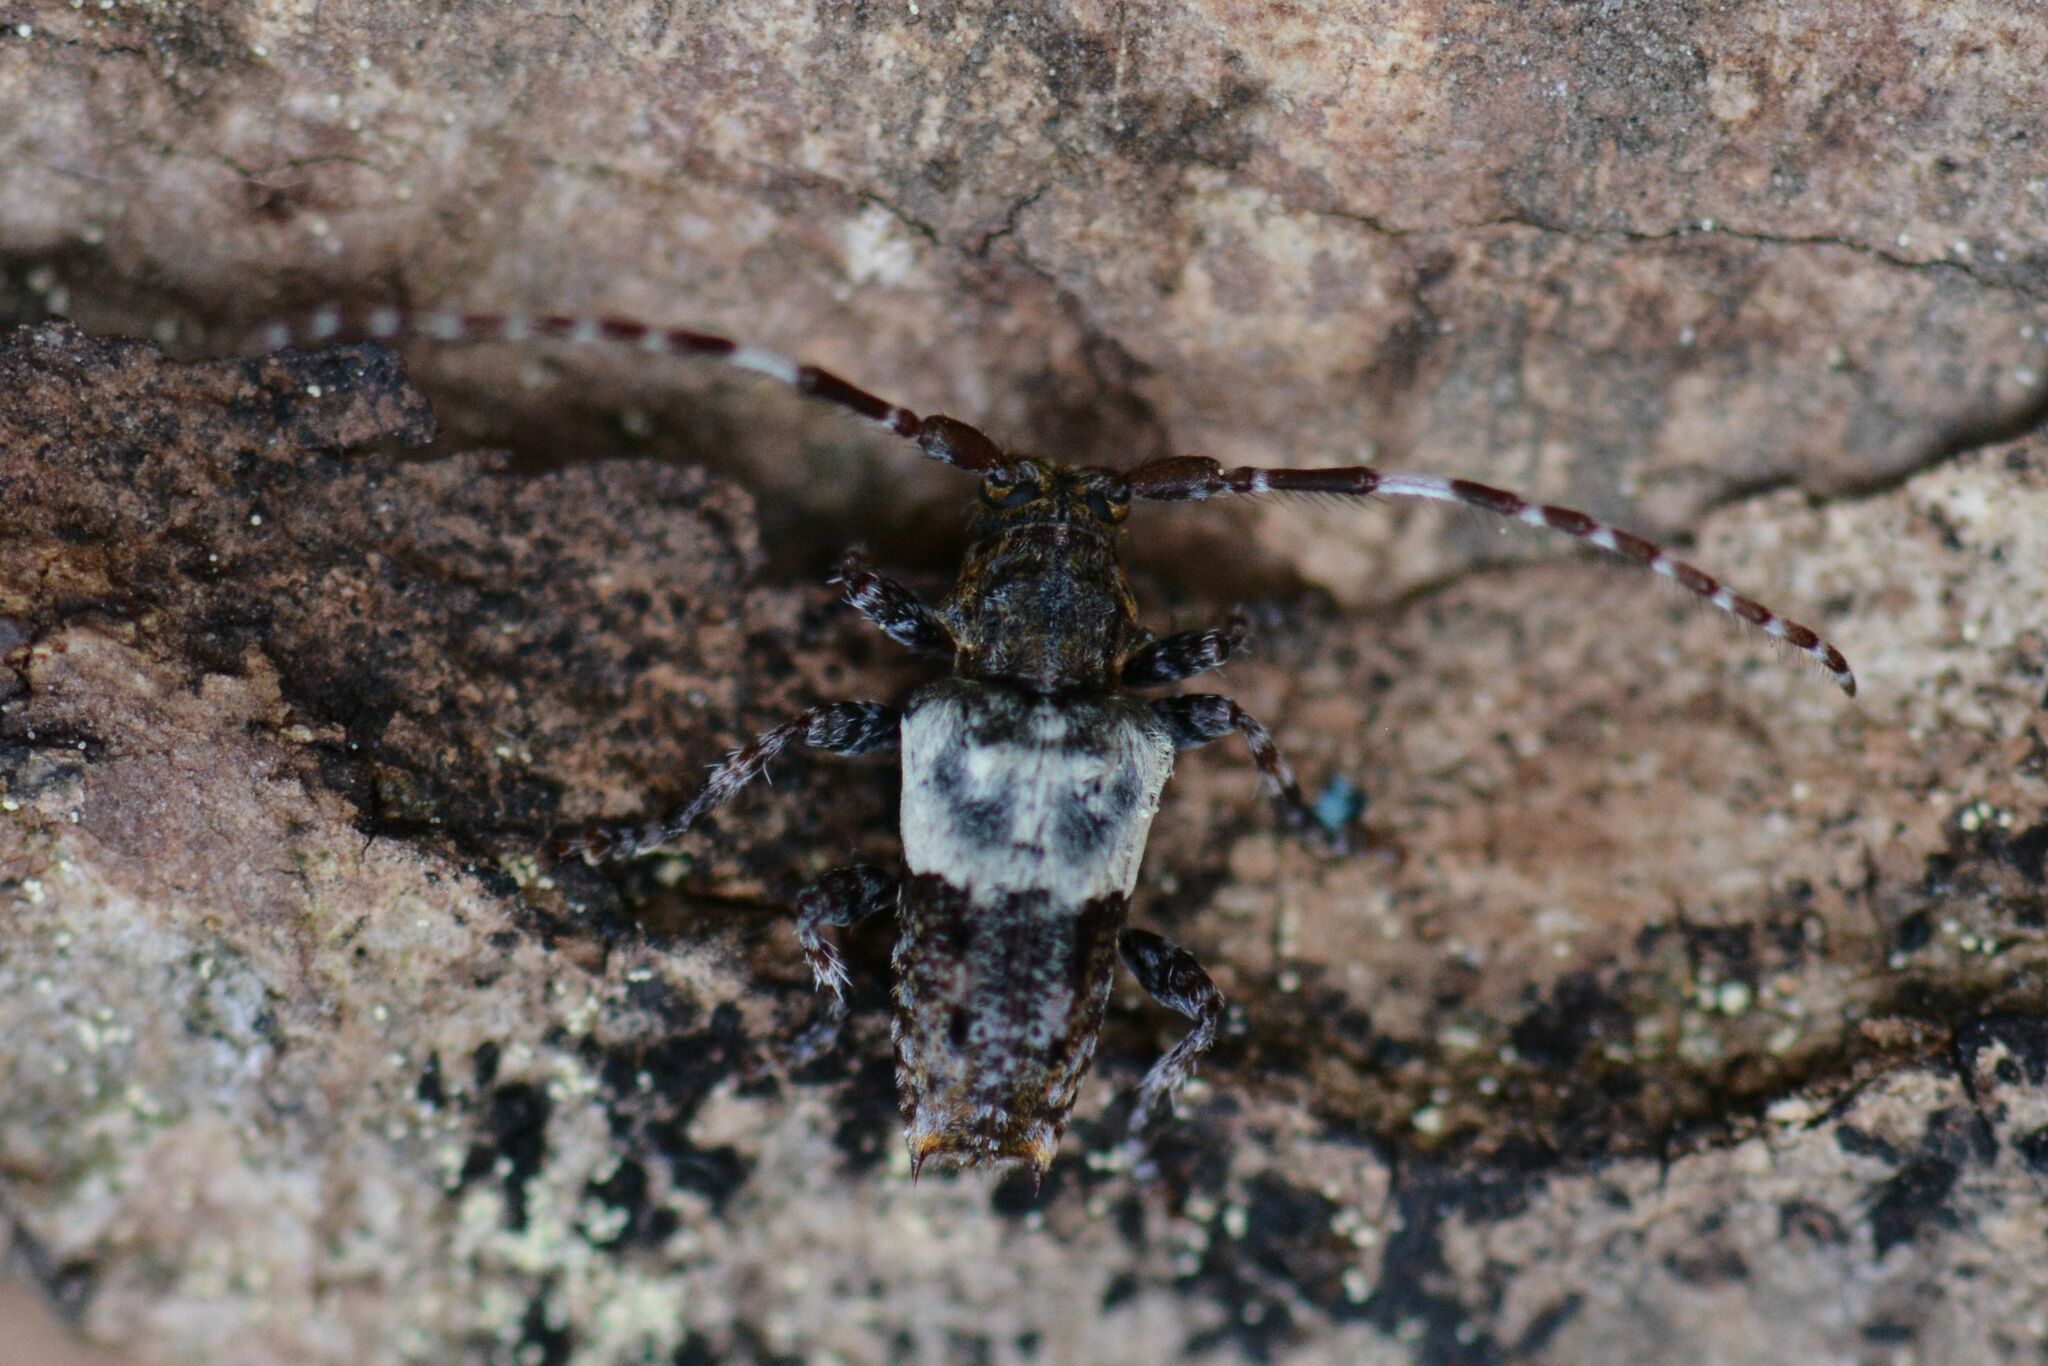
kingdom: Animalia
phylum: Arthropoda
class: Insecta
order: Coleoptera
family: Cerambycidae
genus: Pogonocherus
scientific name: Pogonocherus hispidulus
